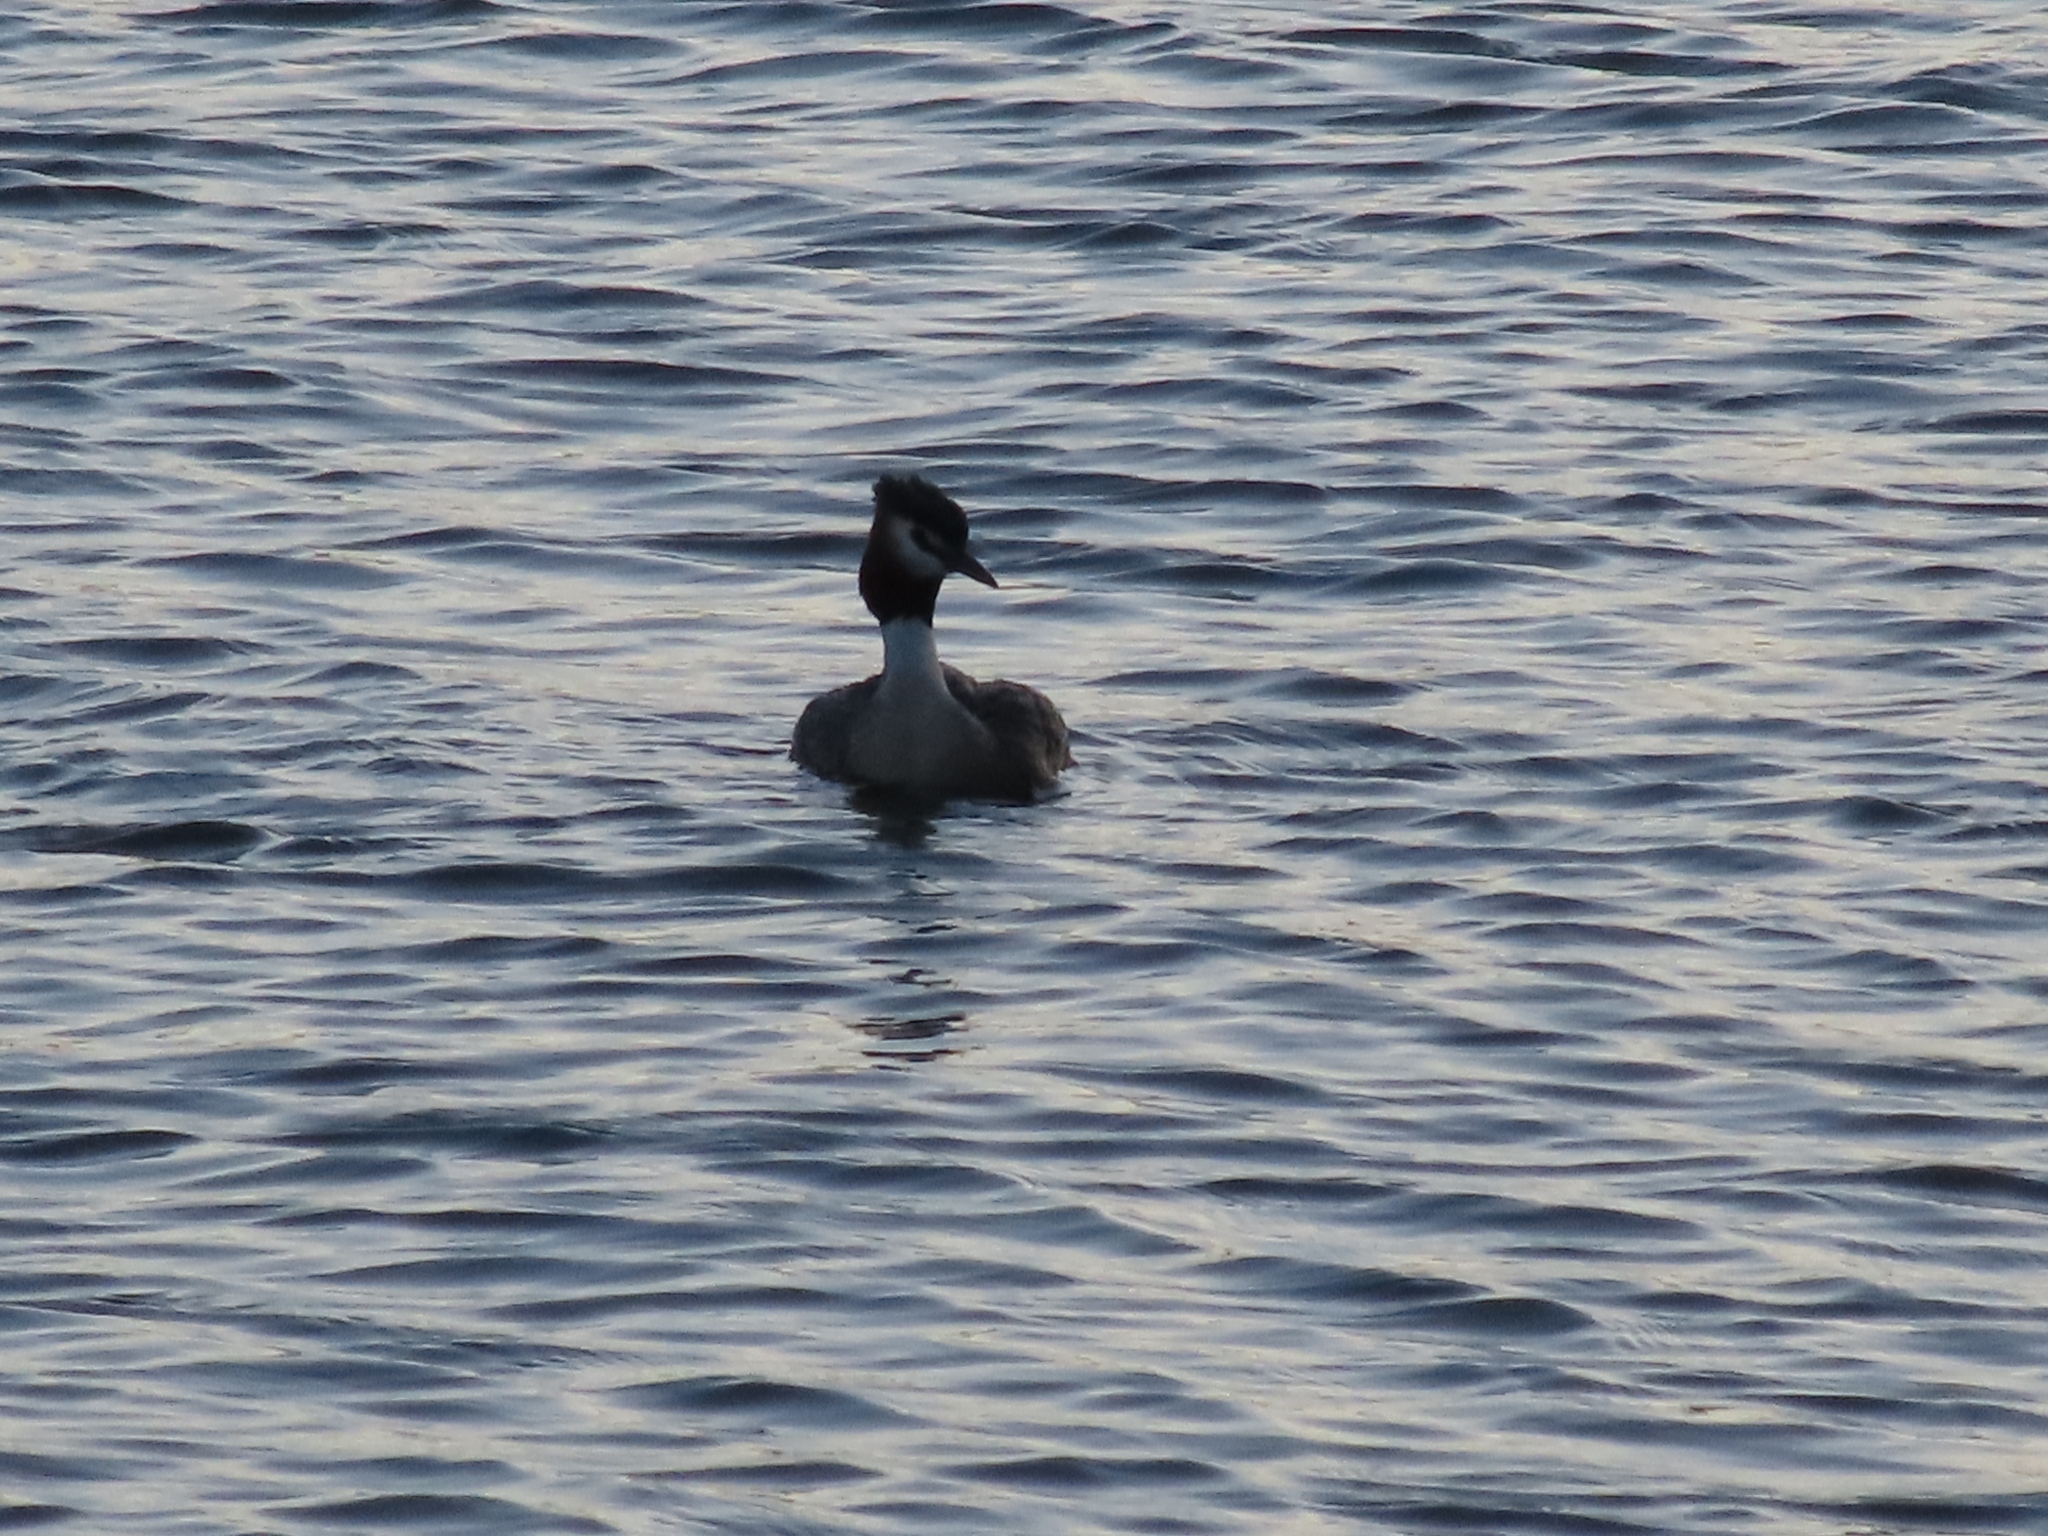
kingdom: Animalia
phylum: Chordata
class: Aves
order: Podicipediformes
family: Podicipedidae
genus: Podiceps
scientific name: Podiceps cristatus
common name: Great crested grebe
